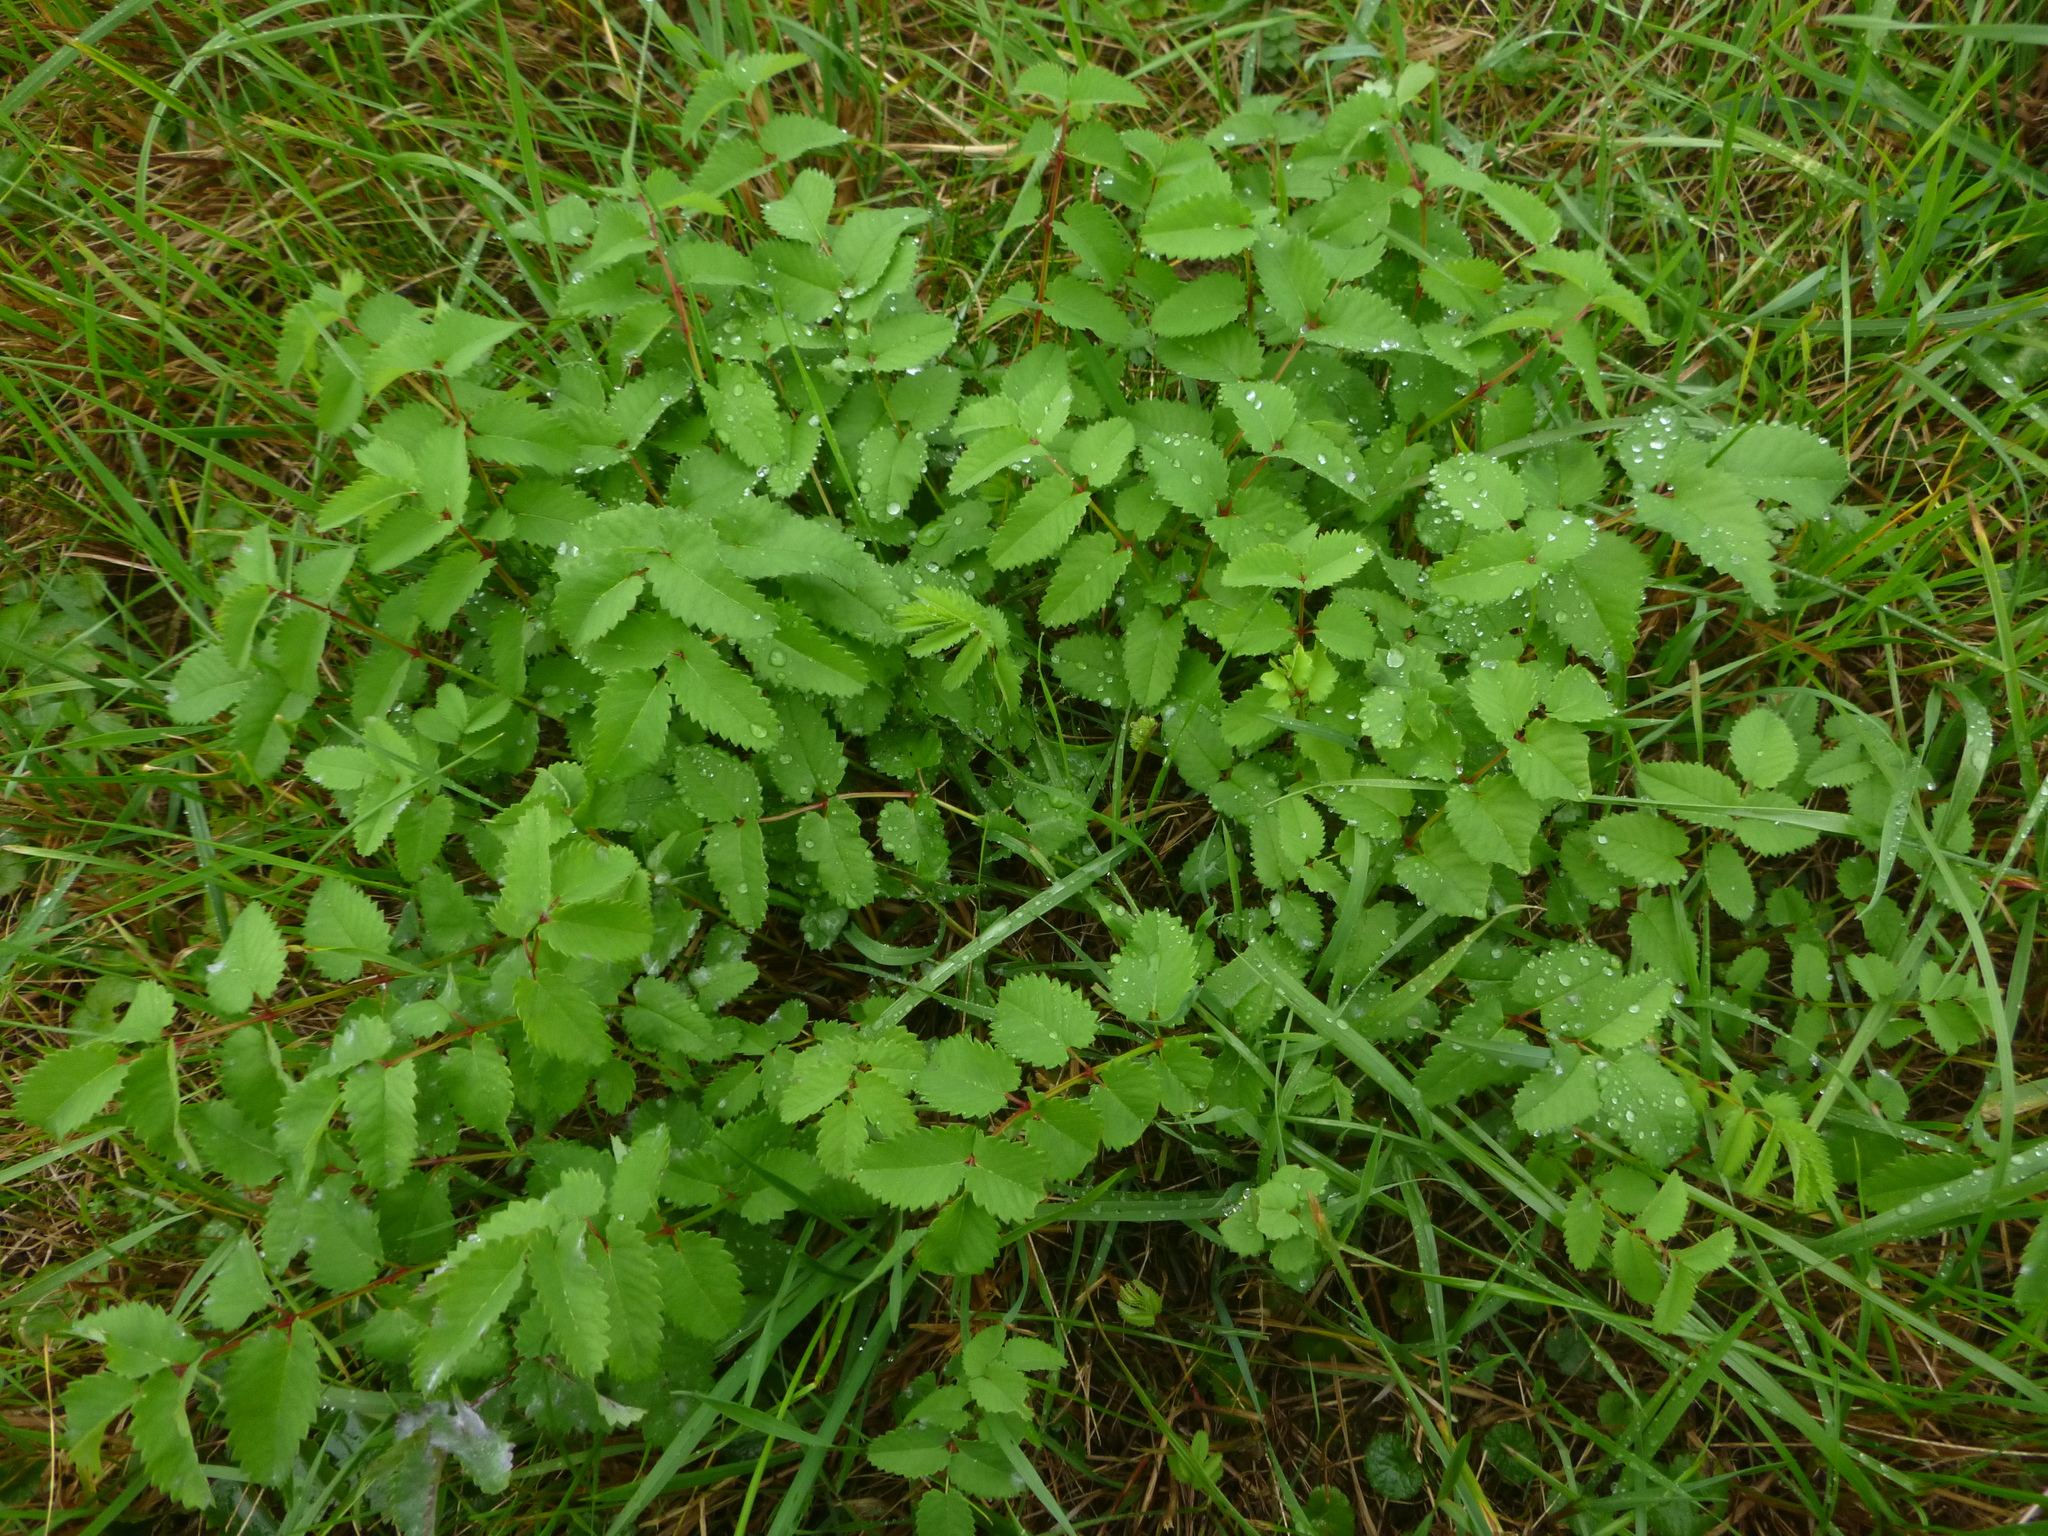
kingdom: Plantae
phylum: Tracheophyta
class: Magnoliopsida
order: Rosales
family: Rosaceae
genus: Sanguisorba
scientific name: Sanguisorba officinalis
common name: Great burnet
